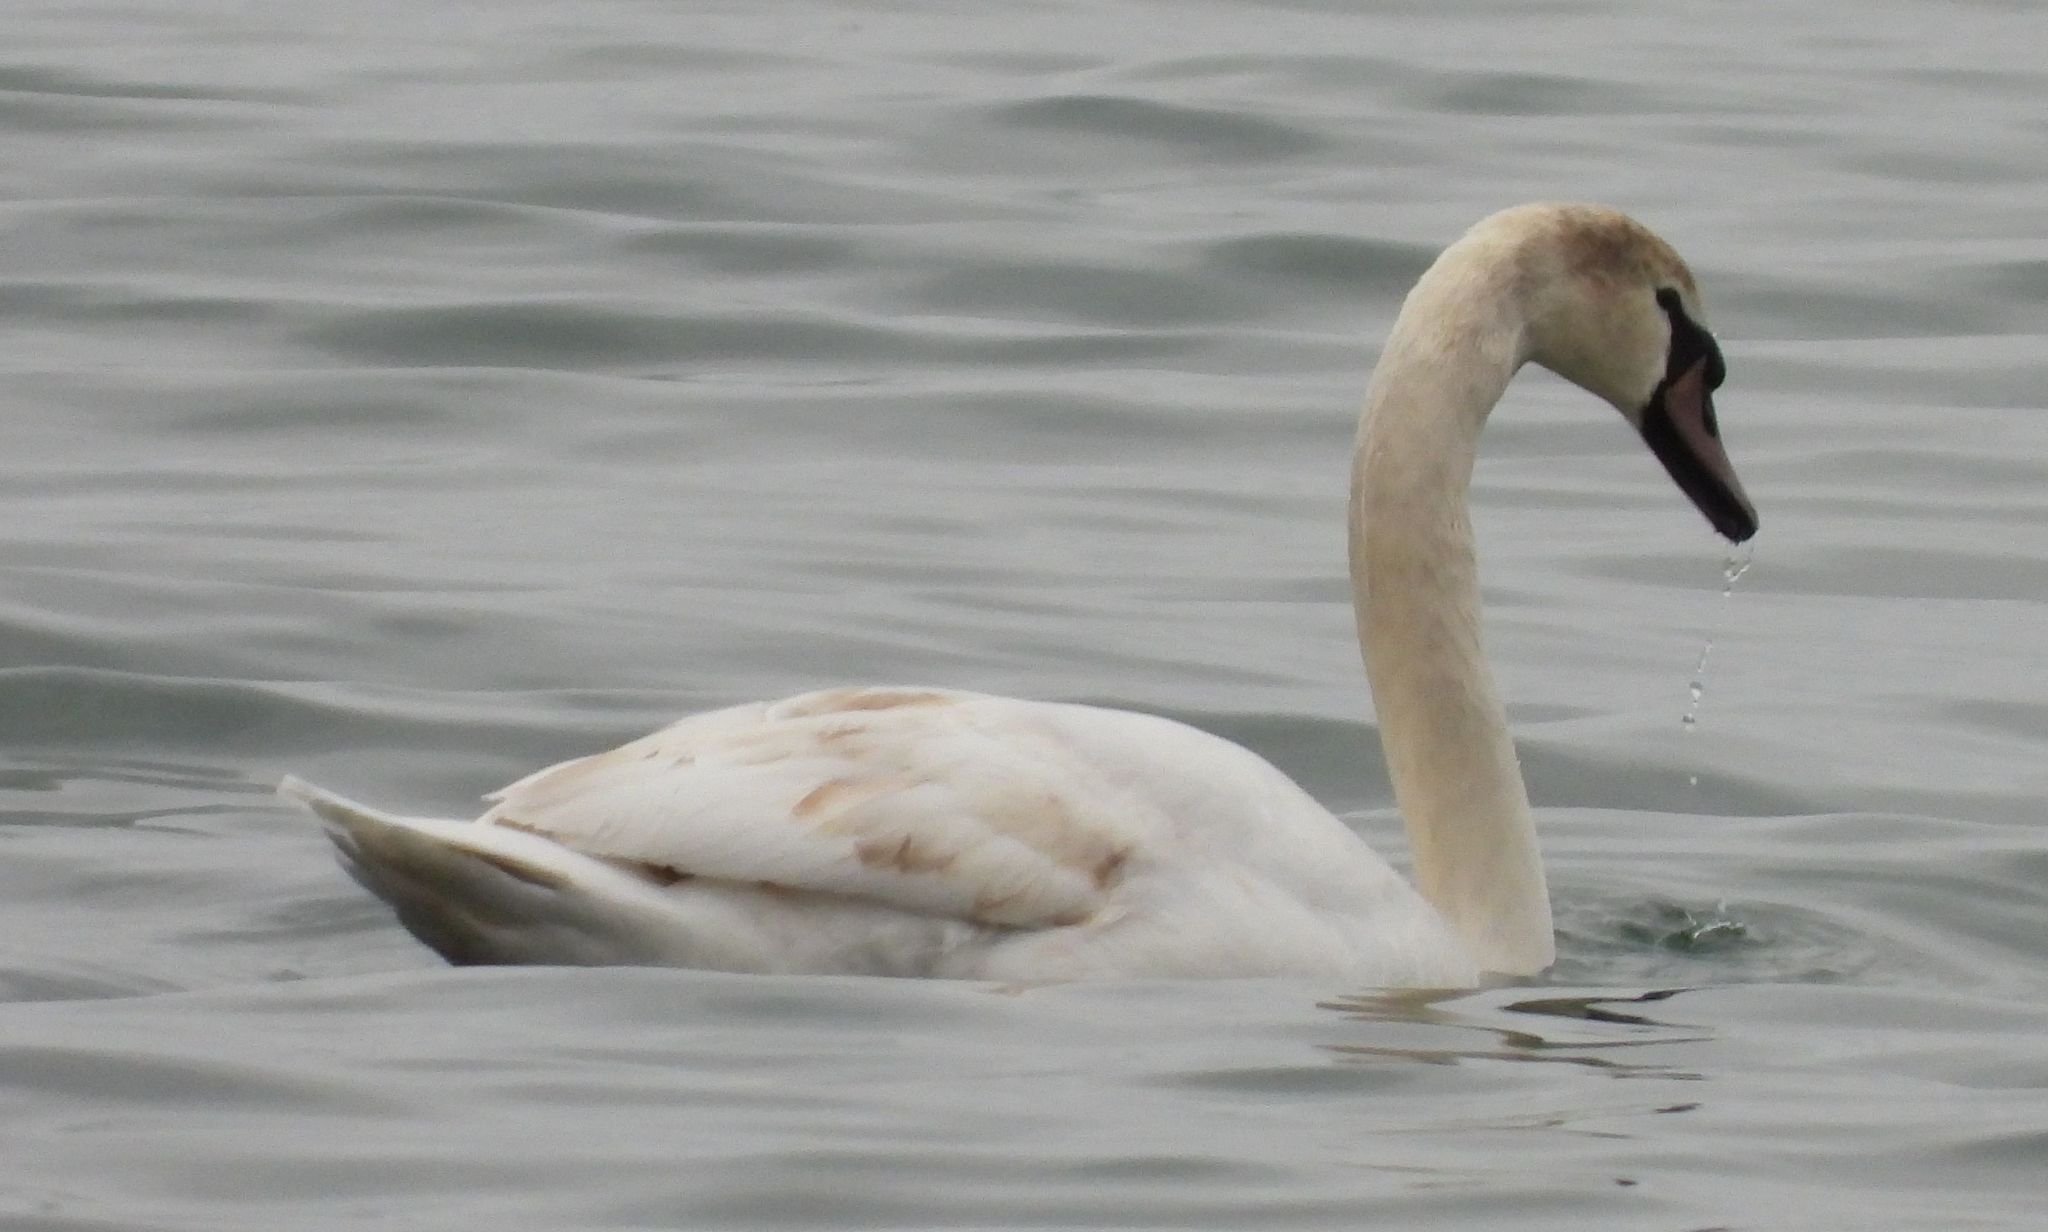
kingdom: Animalia
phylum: Chordata
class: Aves
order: Anseriformes
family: Anatidae
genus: Cygnus
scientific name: Cygnus olor
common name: Mute swan
